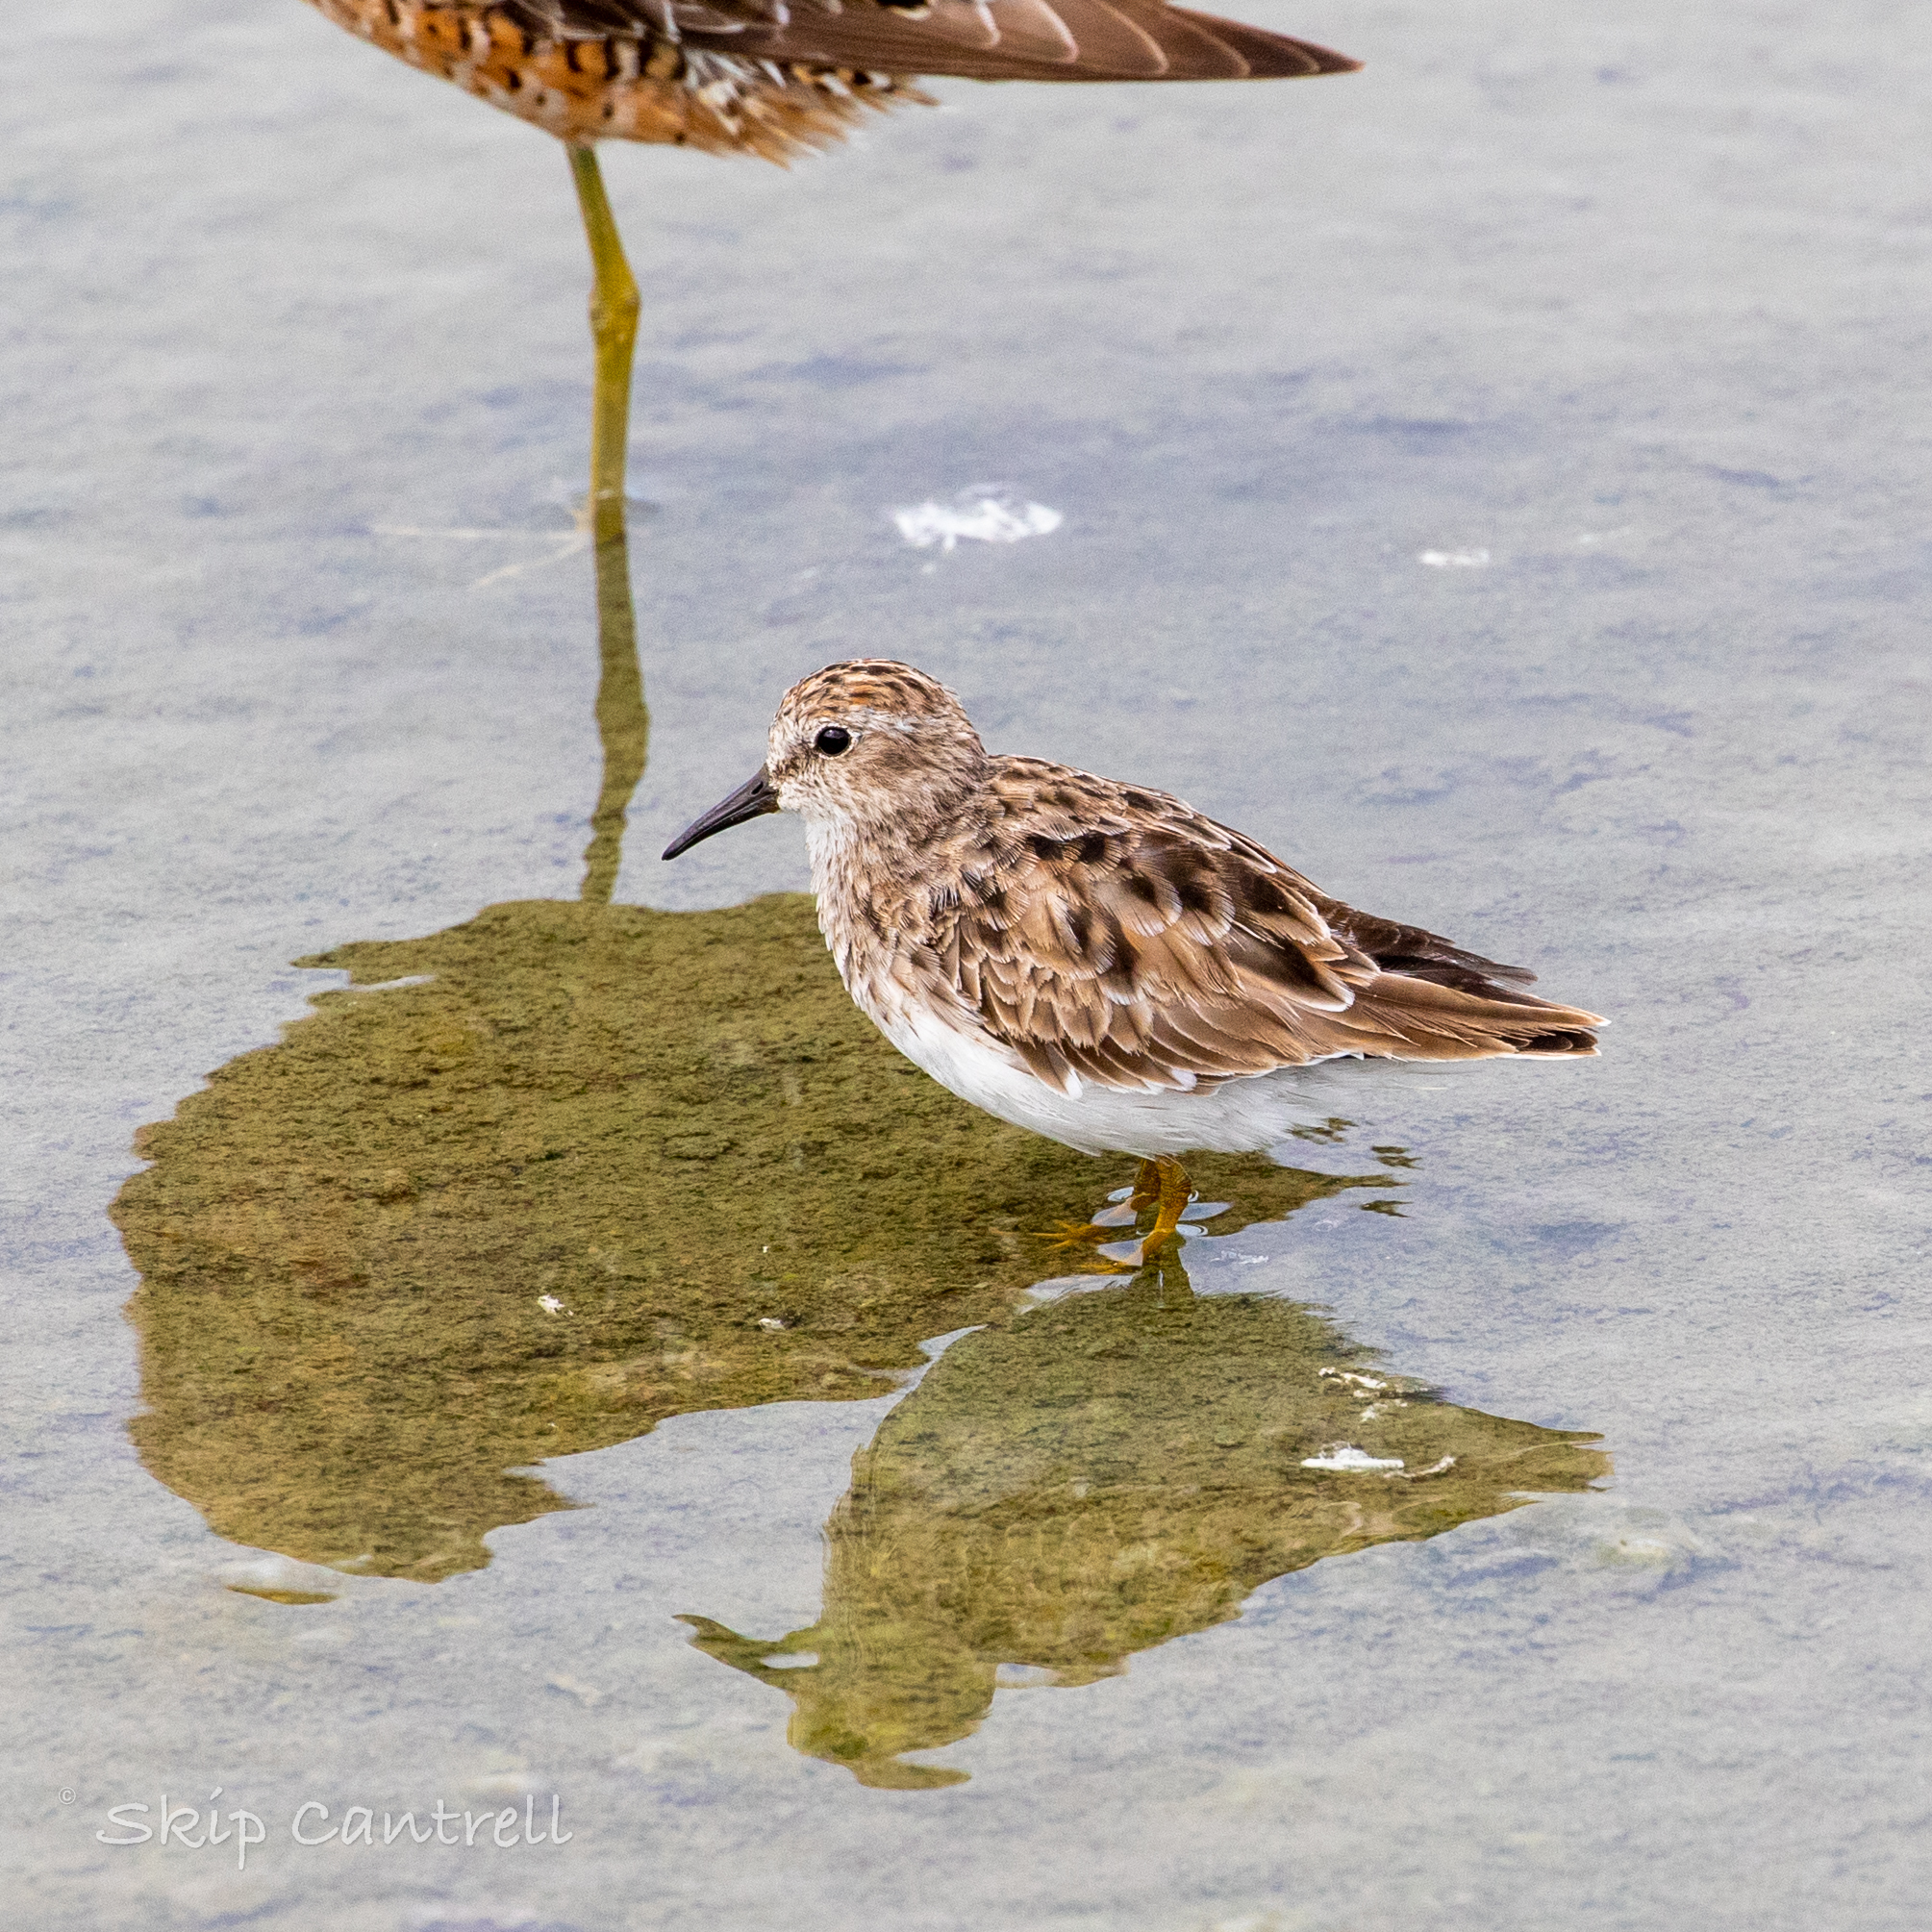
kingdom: Animalia
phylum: Chordata
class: Aves
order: Charadriiformes
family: Scolopacidae
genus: Calidris
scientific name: Calidris minutilla
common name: Least sandpiper
